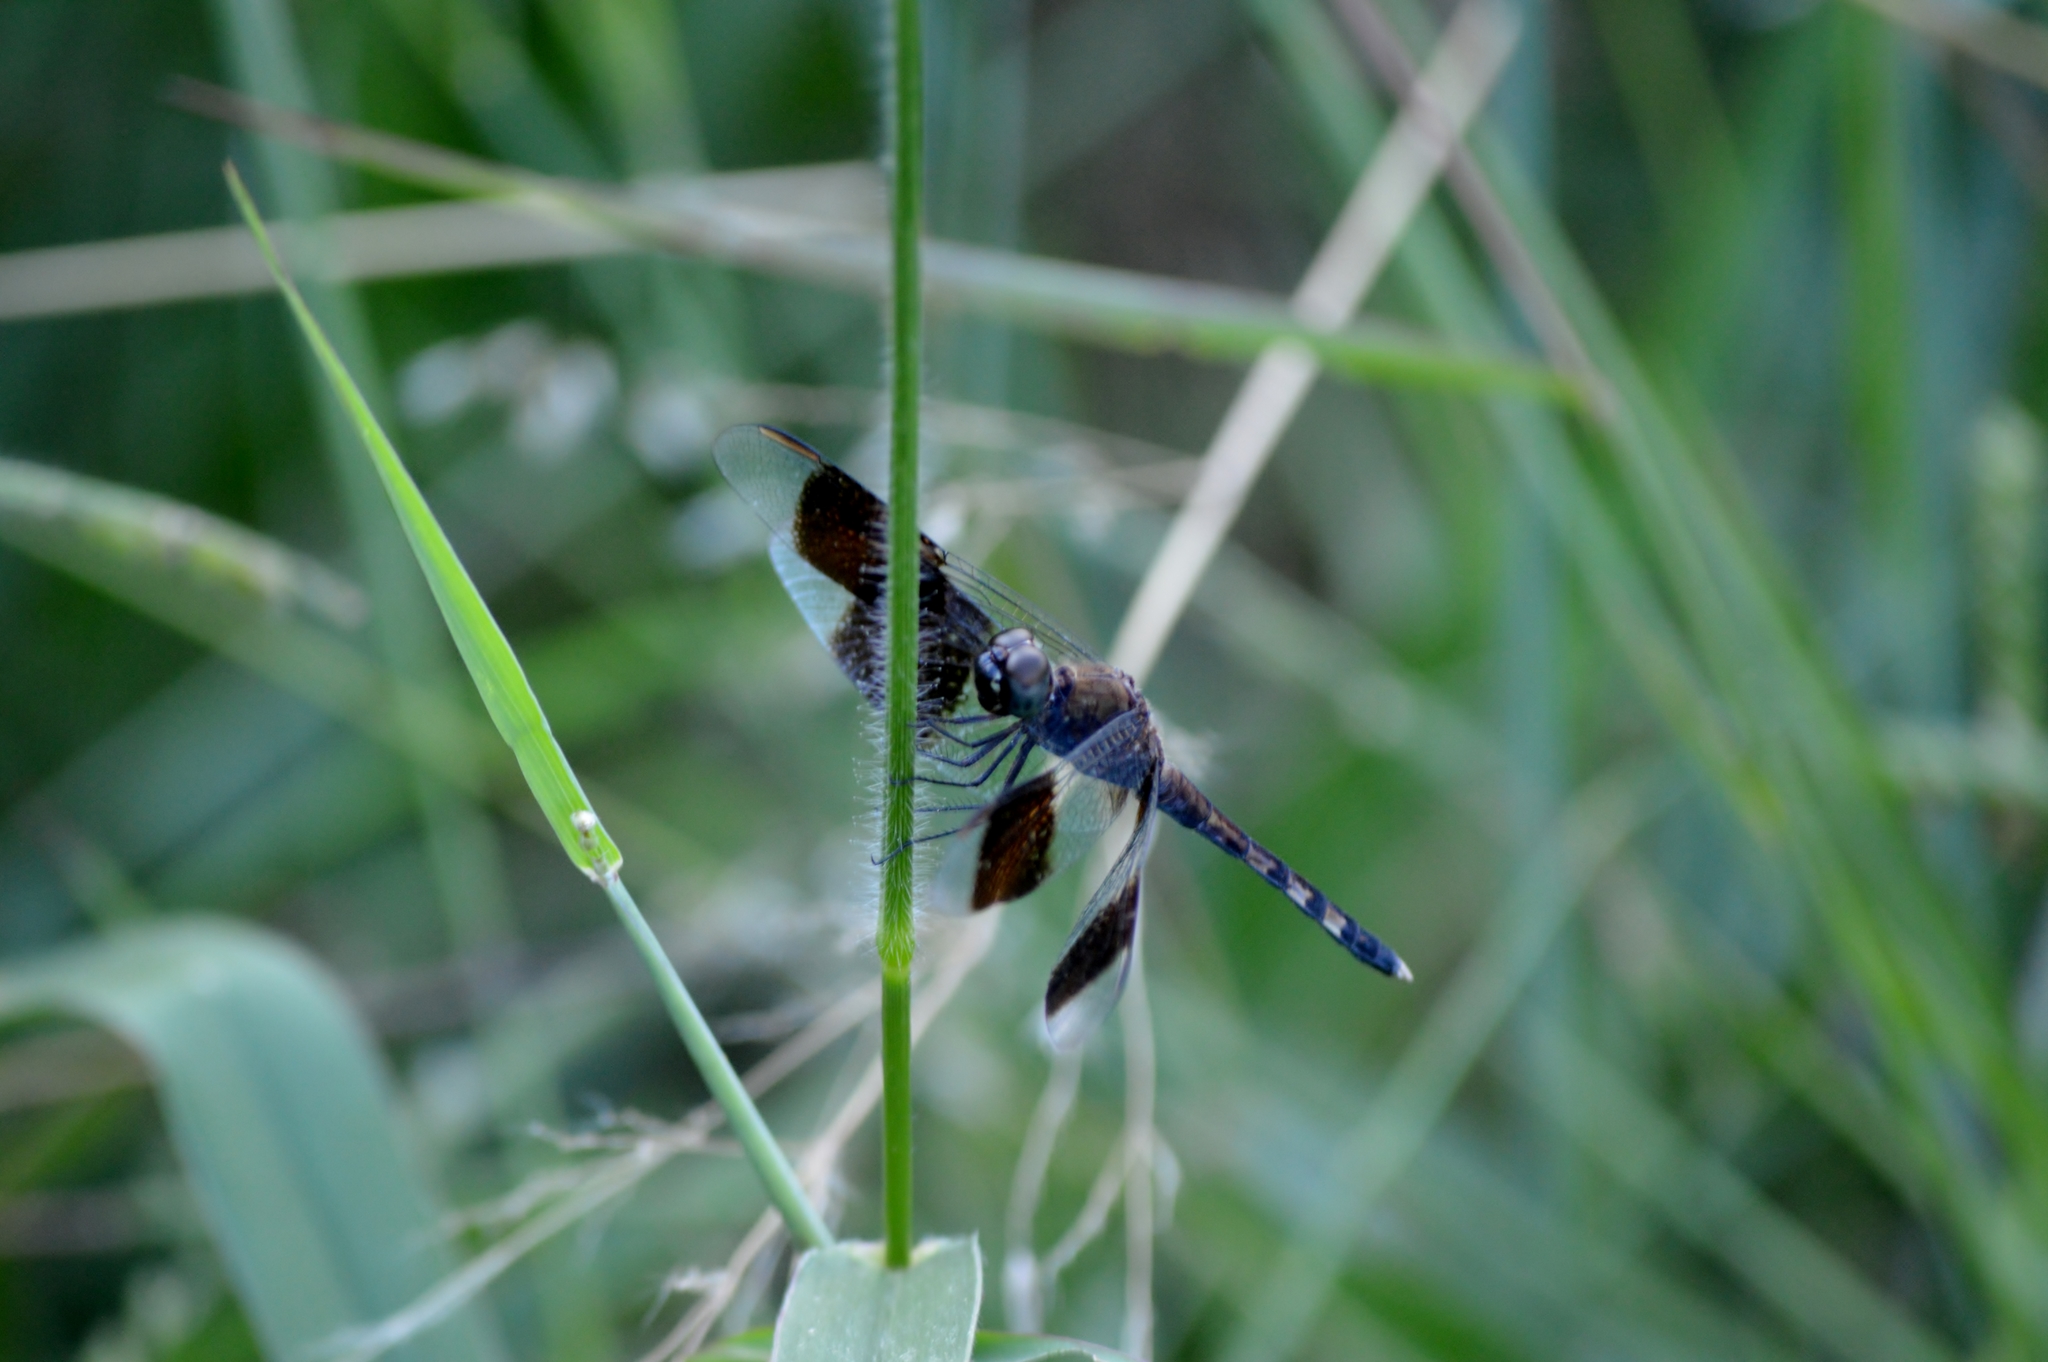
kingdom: Animalia
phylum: Arthropoda
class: Insecta
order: Odonata
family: Libellulidae
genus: Erythrodiplax
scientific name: Erythrodiplax umbrata
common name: Band-winged dragonlet
